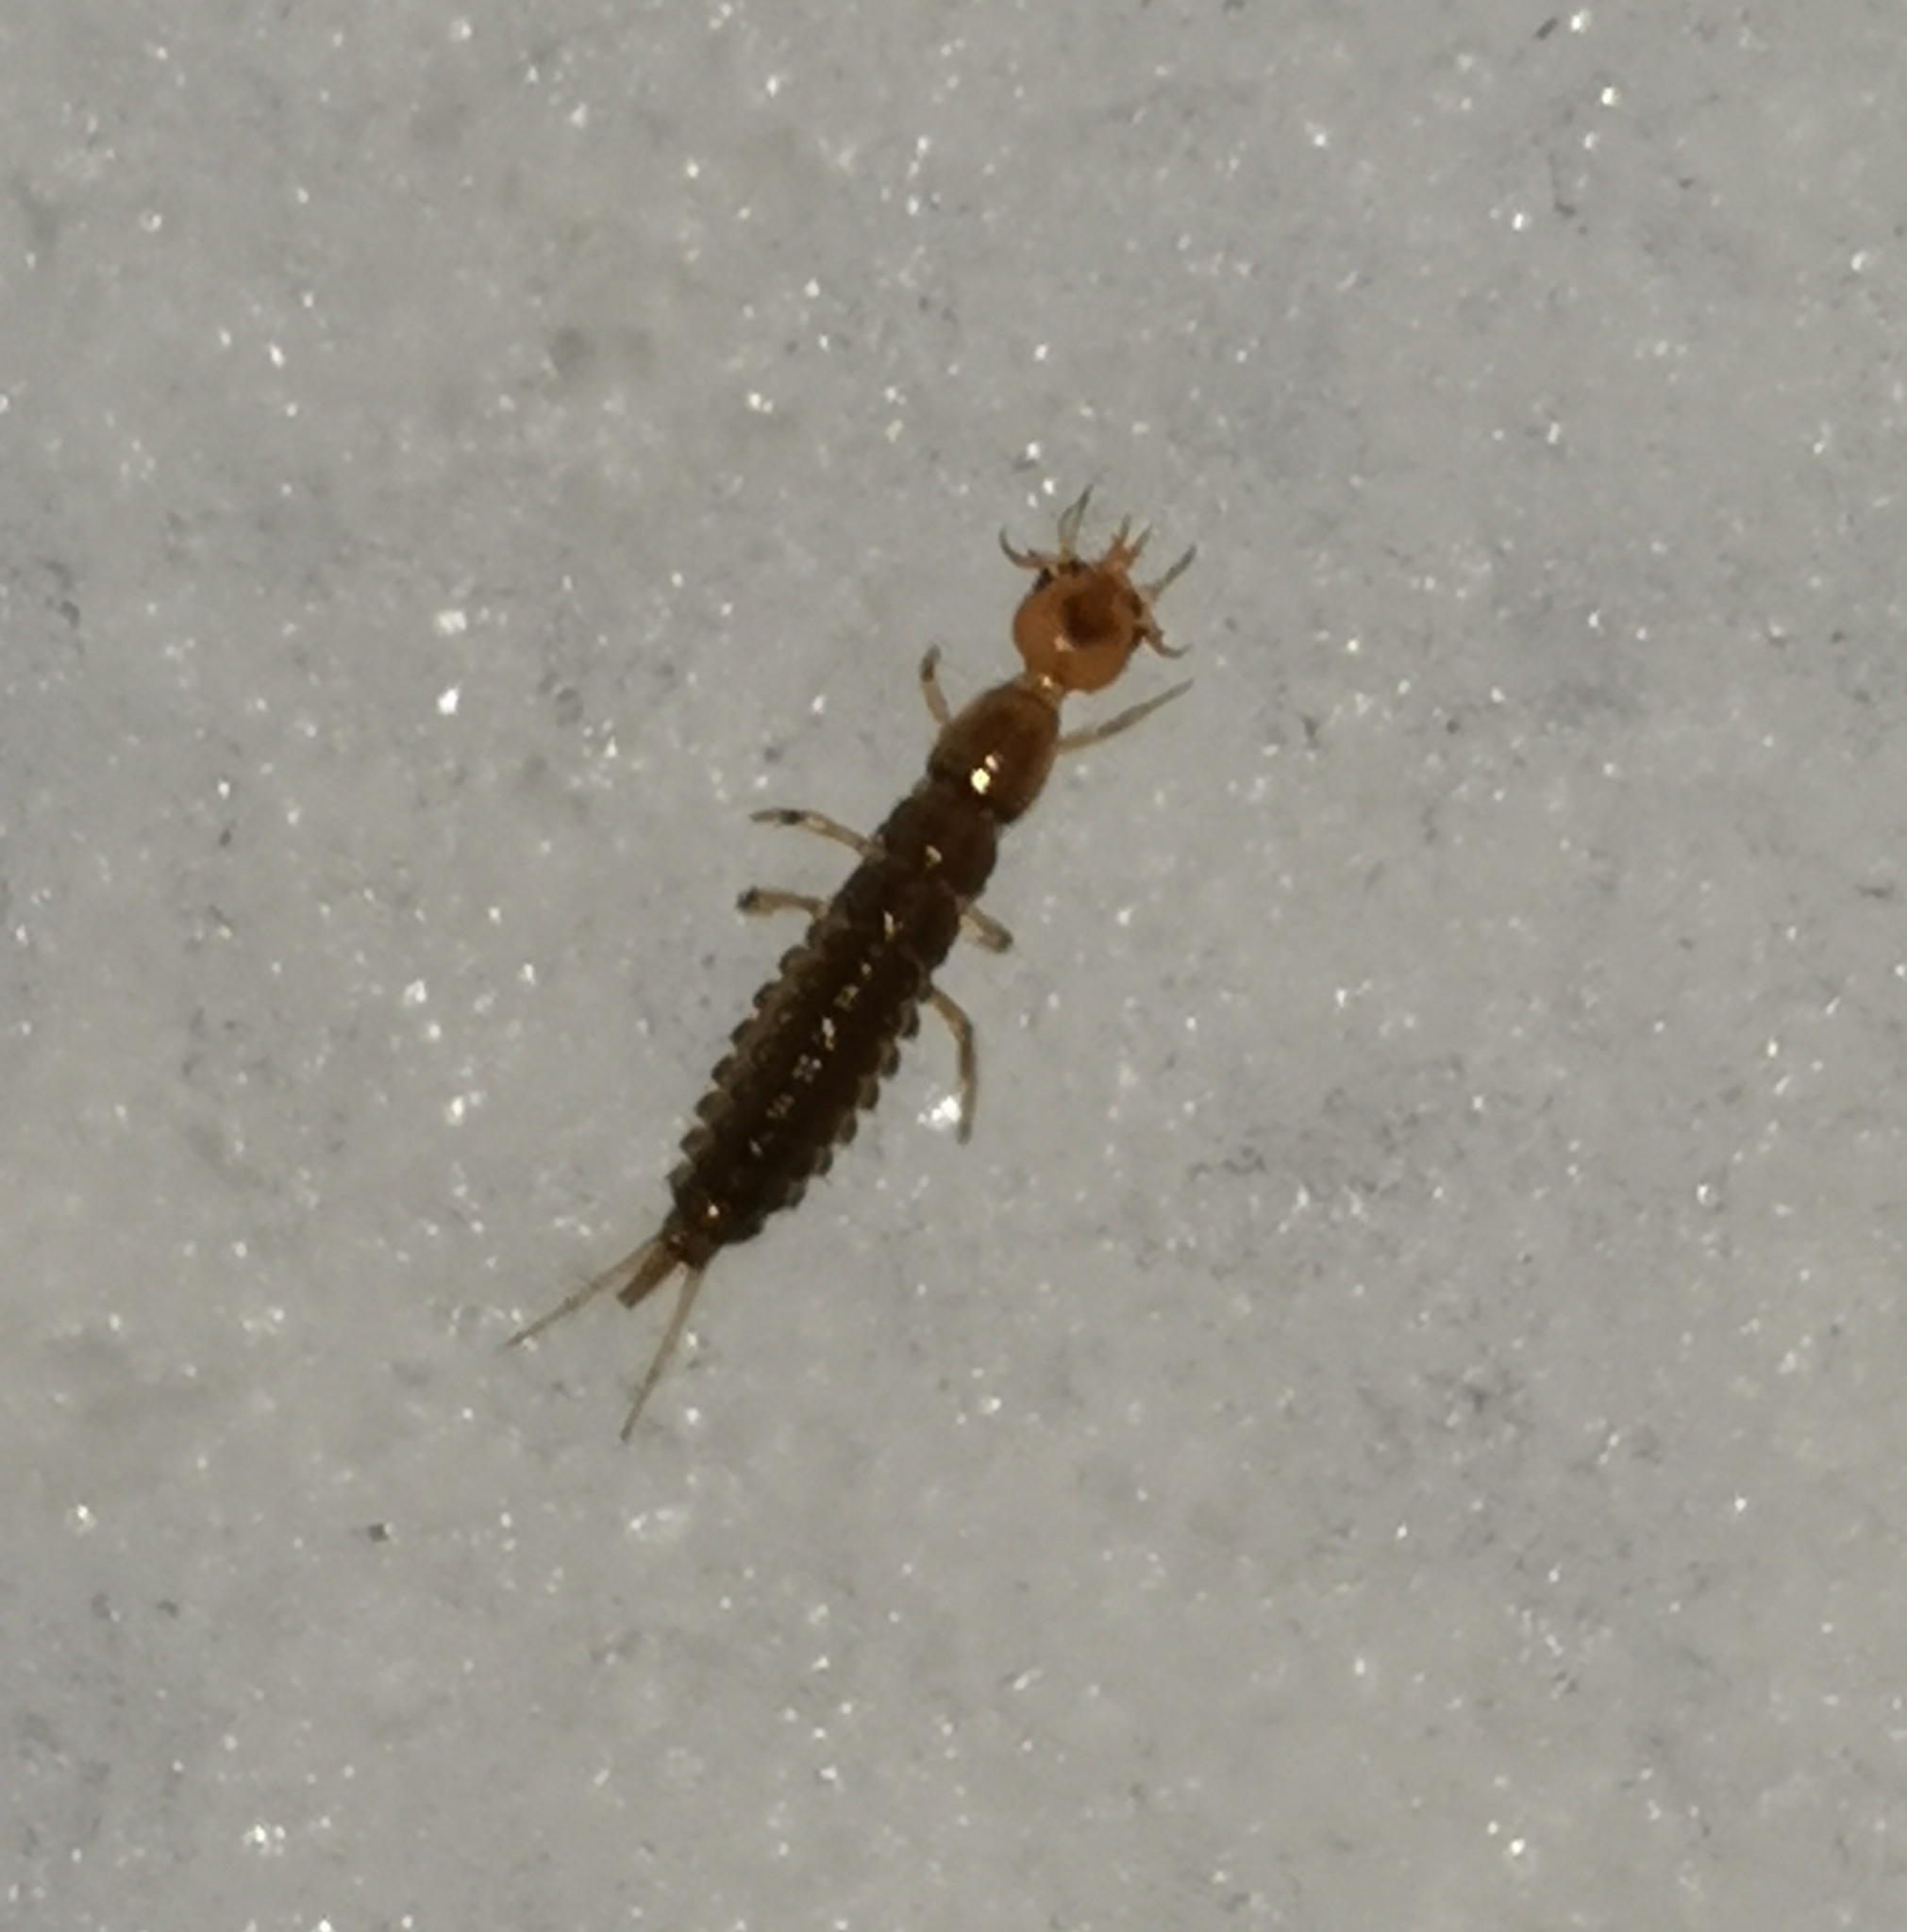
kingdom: Animalia
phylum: Arthropoda
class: Insecta
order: Coleoptera
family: Carabidae
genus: Leistus
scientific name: Leistus
